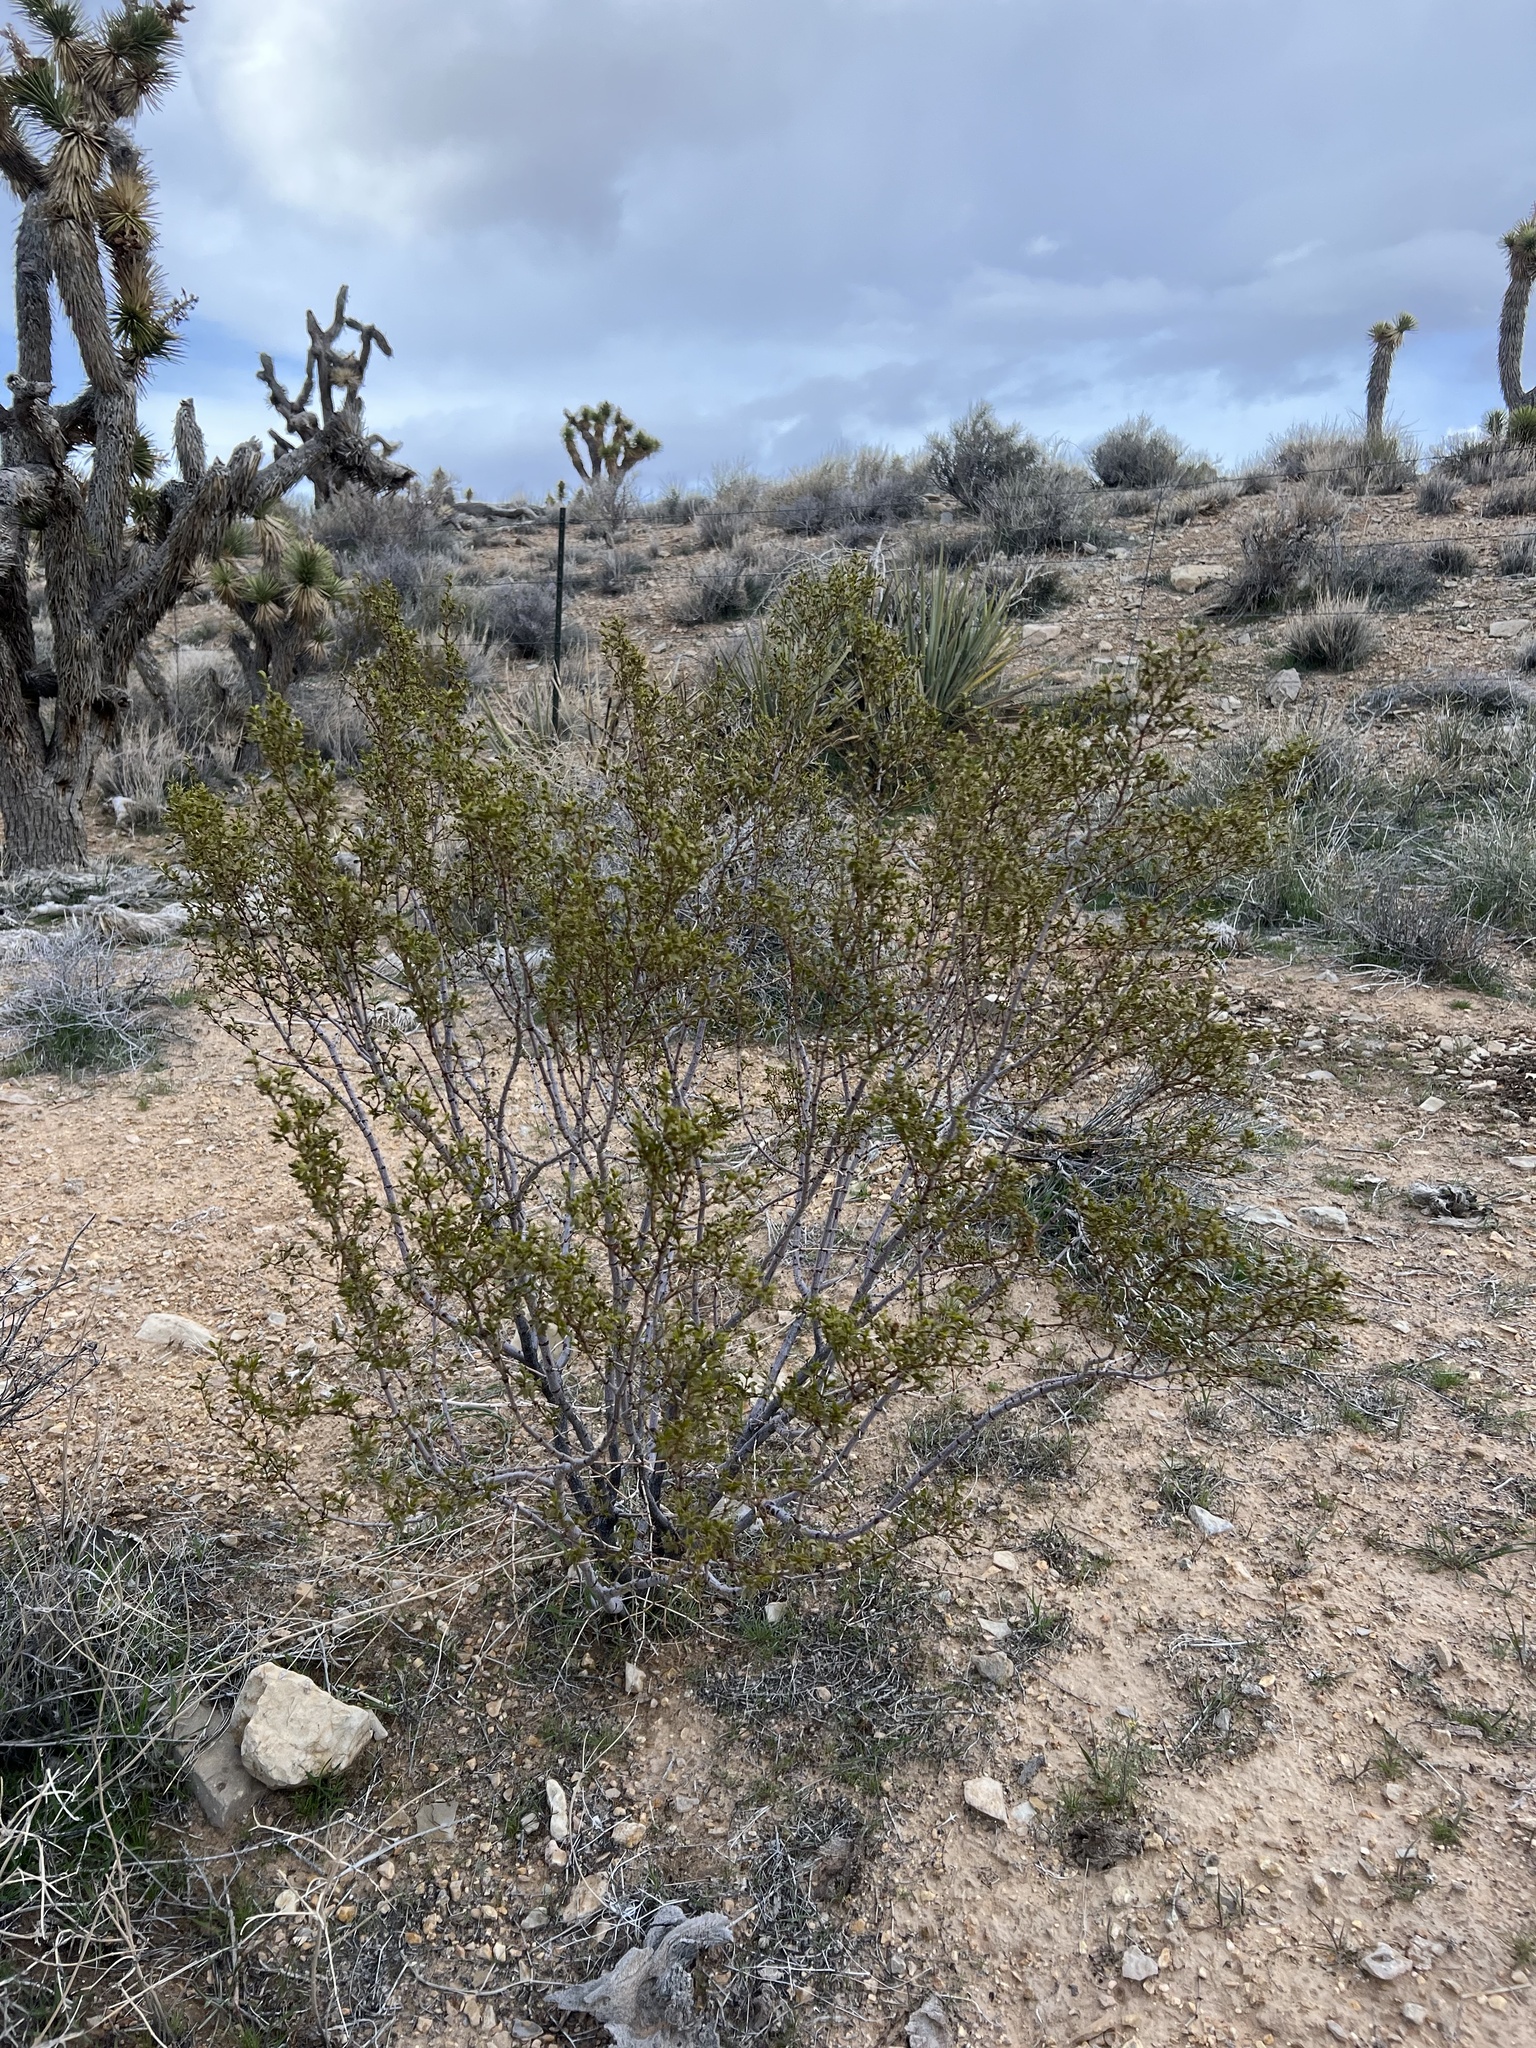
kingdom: Plantae
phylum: Tracheophyta
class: Magnoliopsida
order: Zygophyllales
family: Zygophyllaceae
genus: Larrea
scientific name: Larrea tridentata
